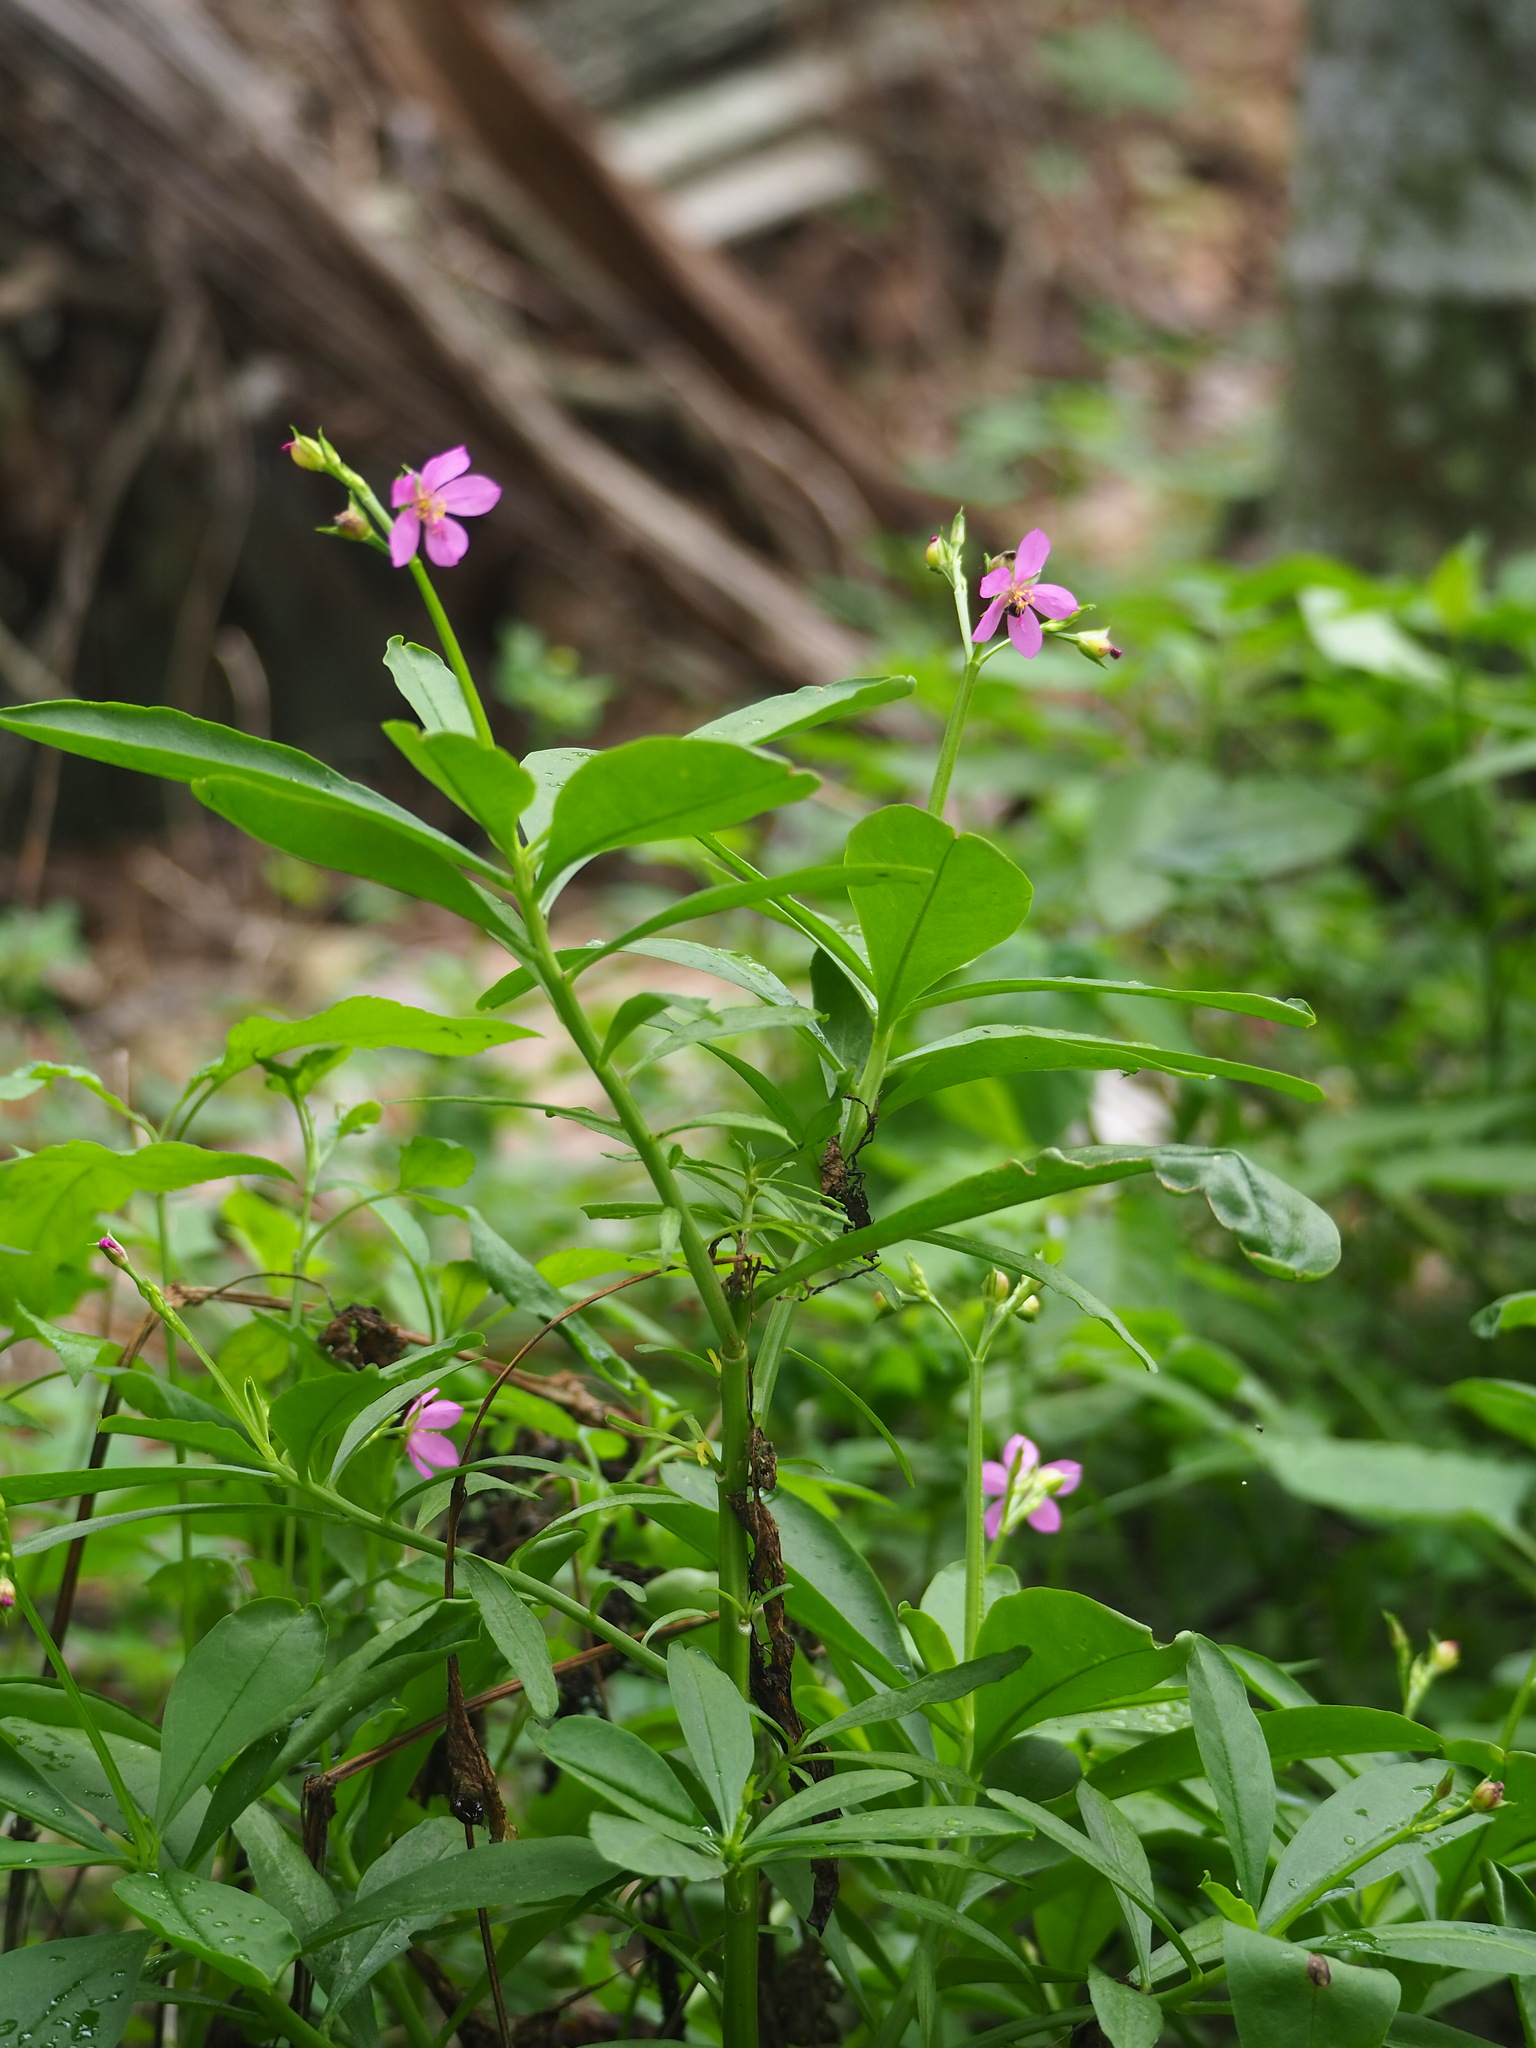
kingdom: Plantae
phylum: Tracheophyta
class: Magnoliopsida
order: Caryophyllales
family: Talinaceae
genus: Talinum
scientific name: Talinum fruticosum
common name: Verdolaga-francesa
